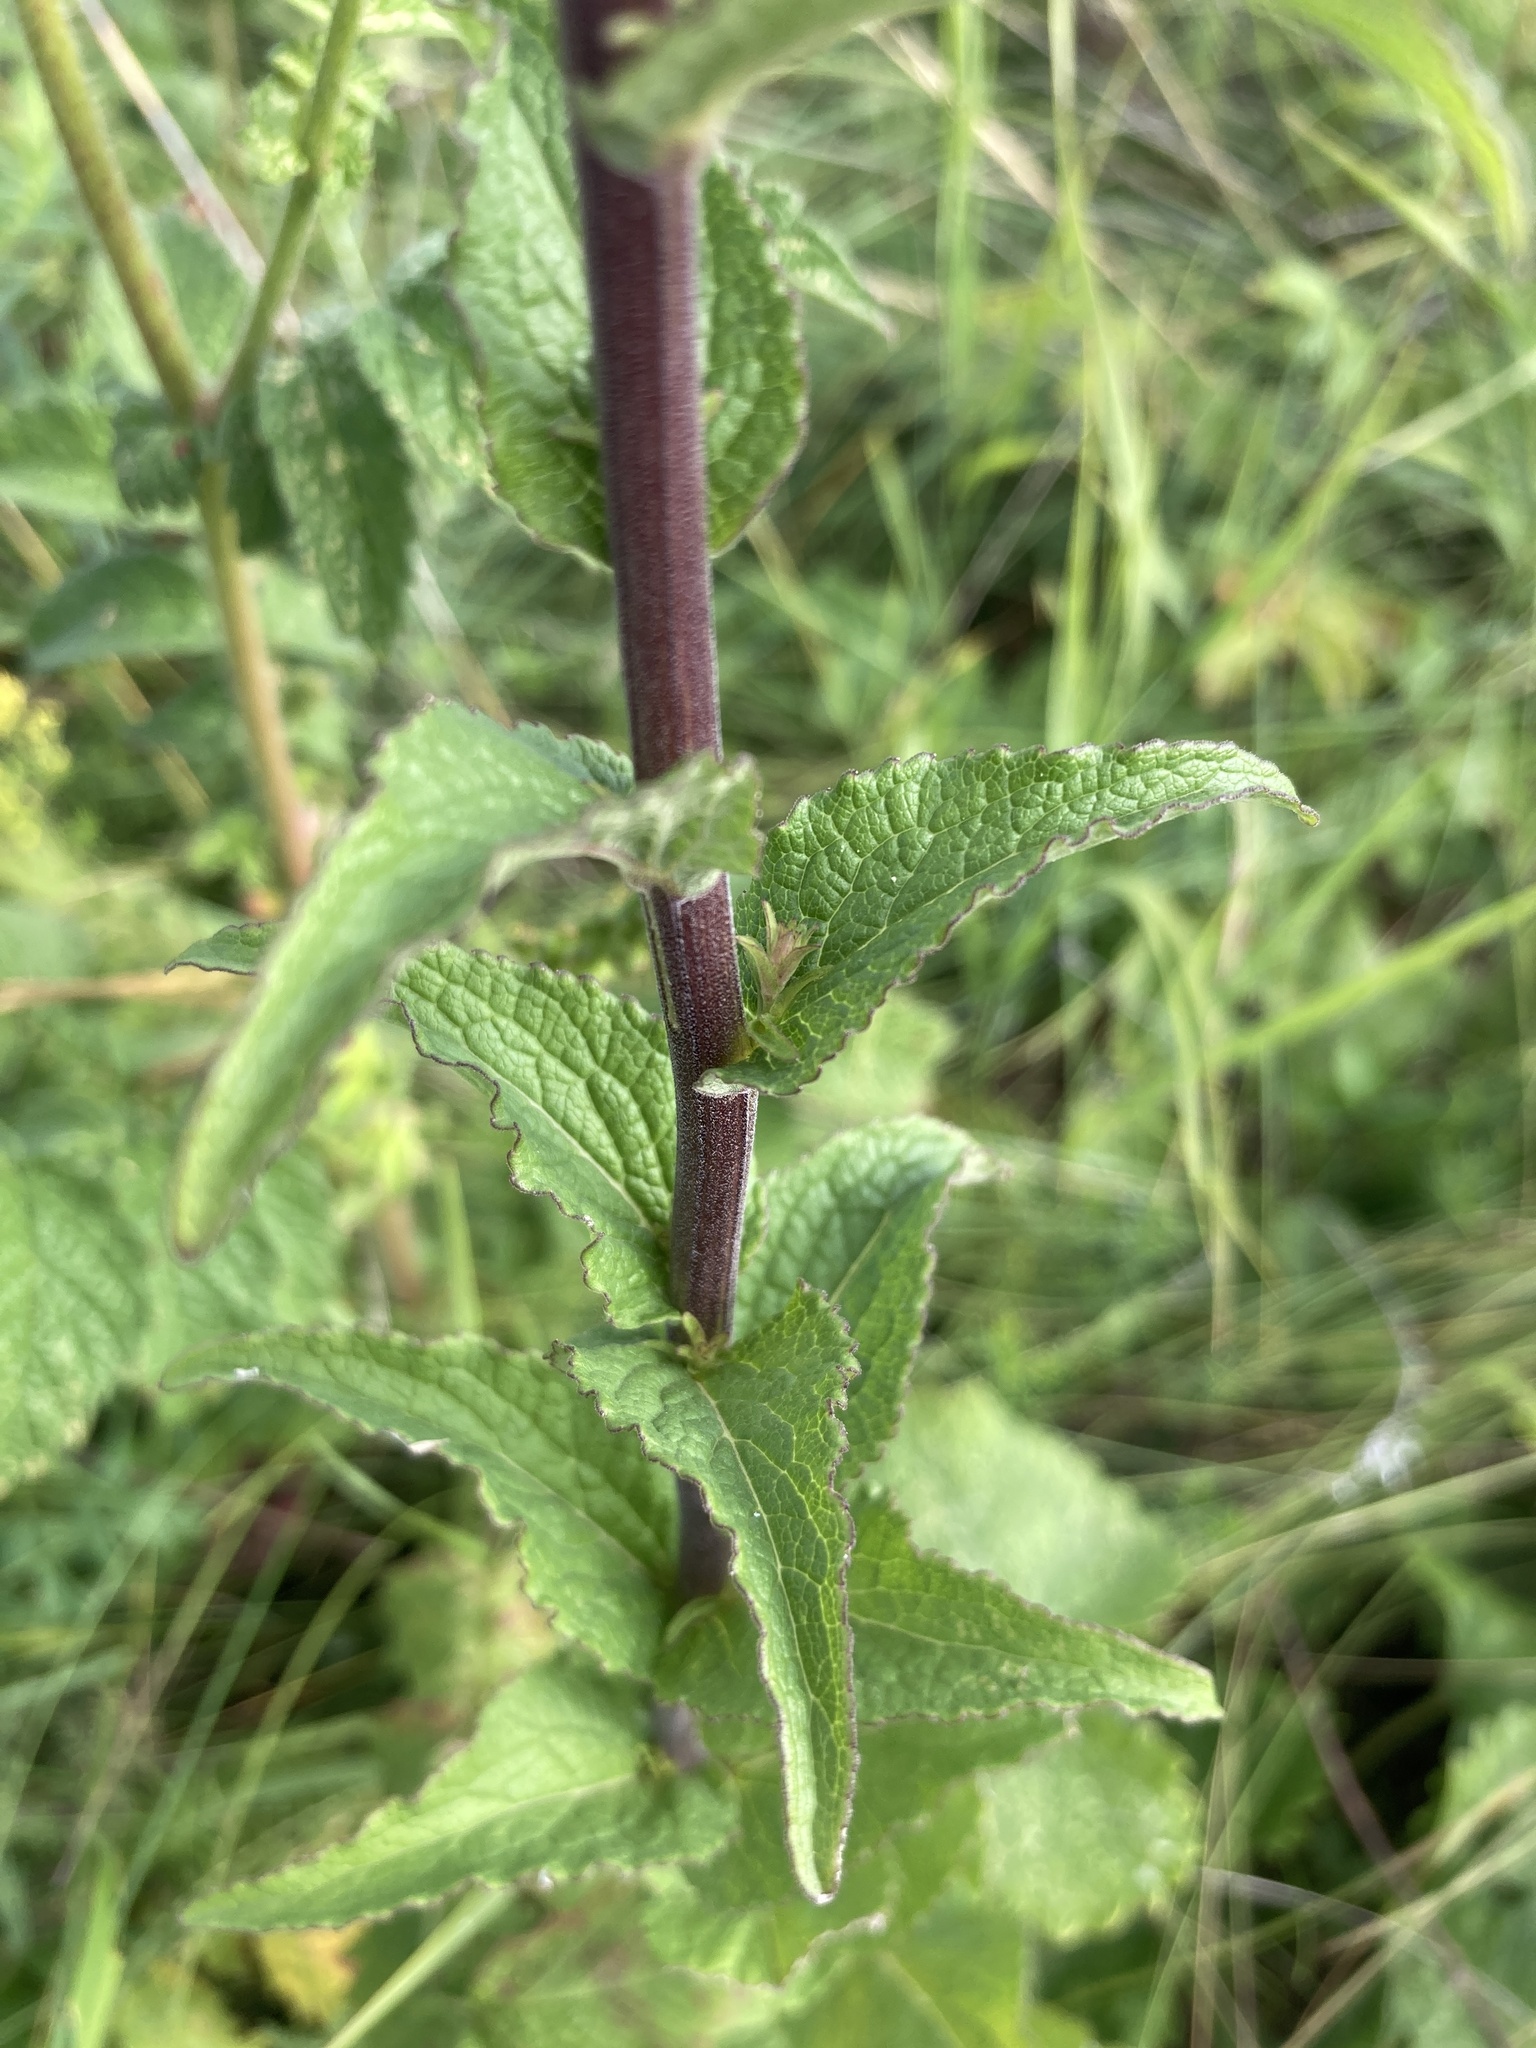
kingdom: Plantae
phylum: Tracheophyta
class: Magnoliopsida
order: Asterales
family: Campanulaceae
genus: Campanula
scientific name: Campanula bononiensis
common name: Pale bellflower
